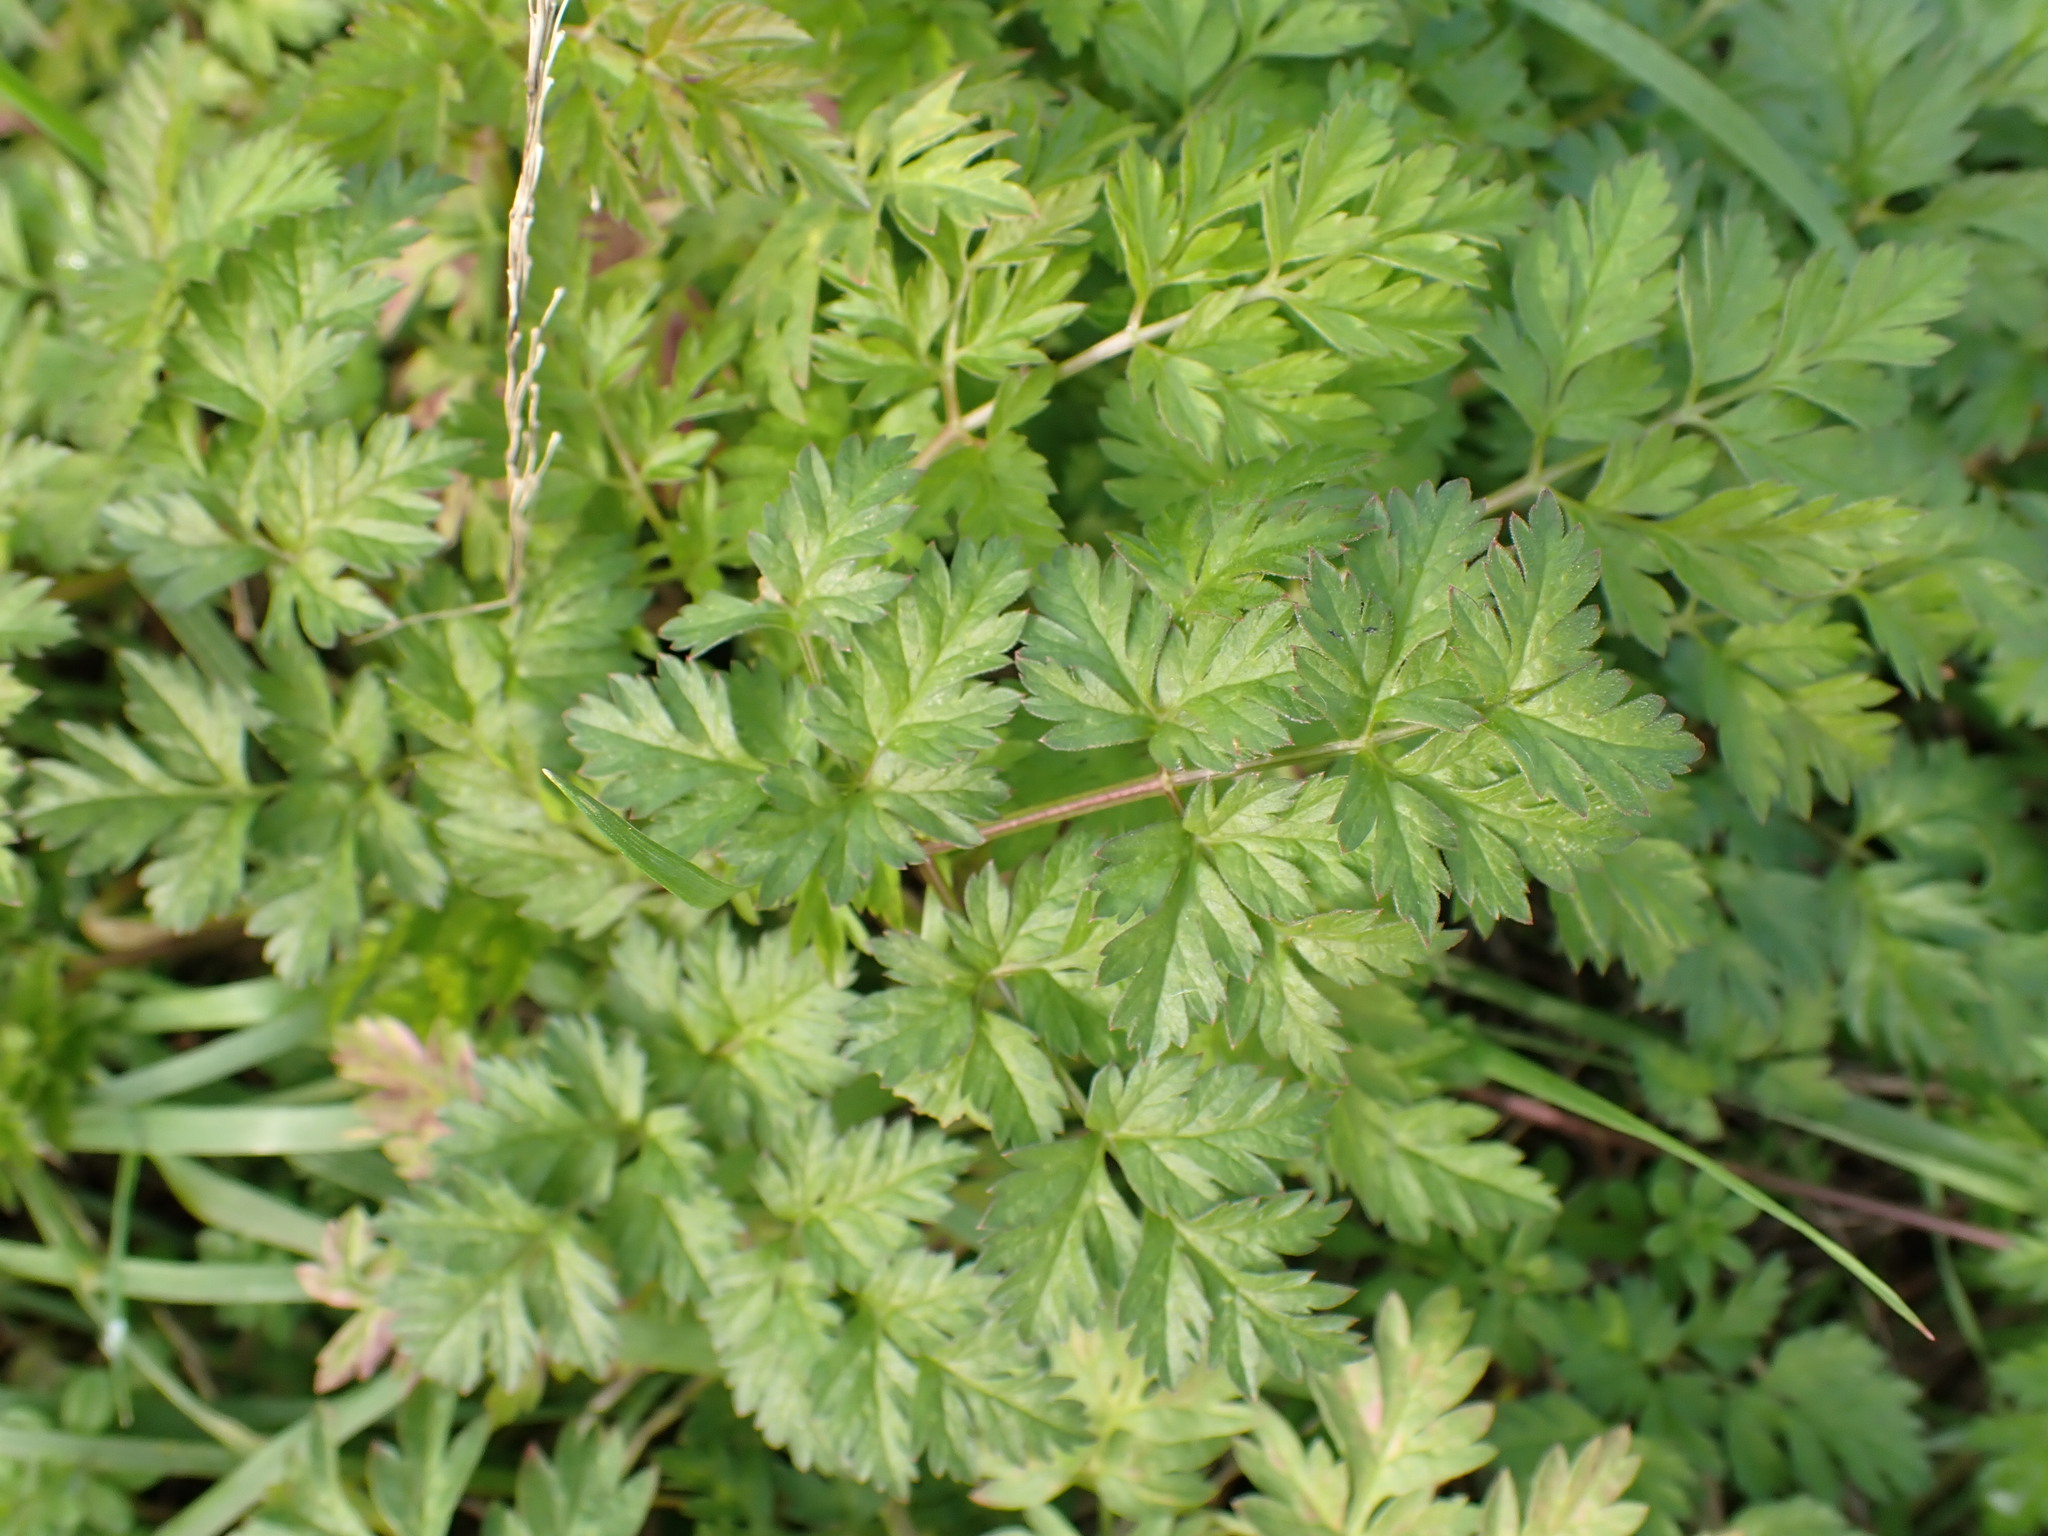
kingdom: Plantae
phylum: Tracheophyta
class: Magnoliopsida
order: Apiales
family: Apiaceae
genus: Anthriscus
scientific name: Anthriscus sylvestris
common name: Cow parsley
